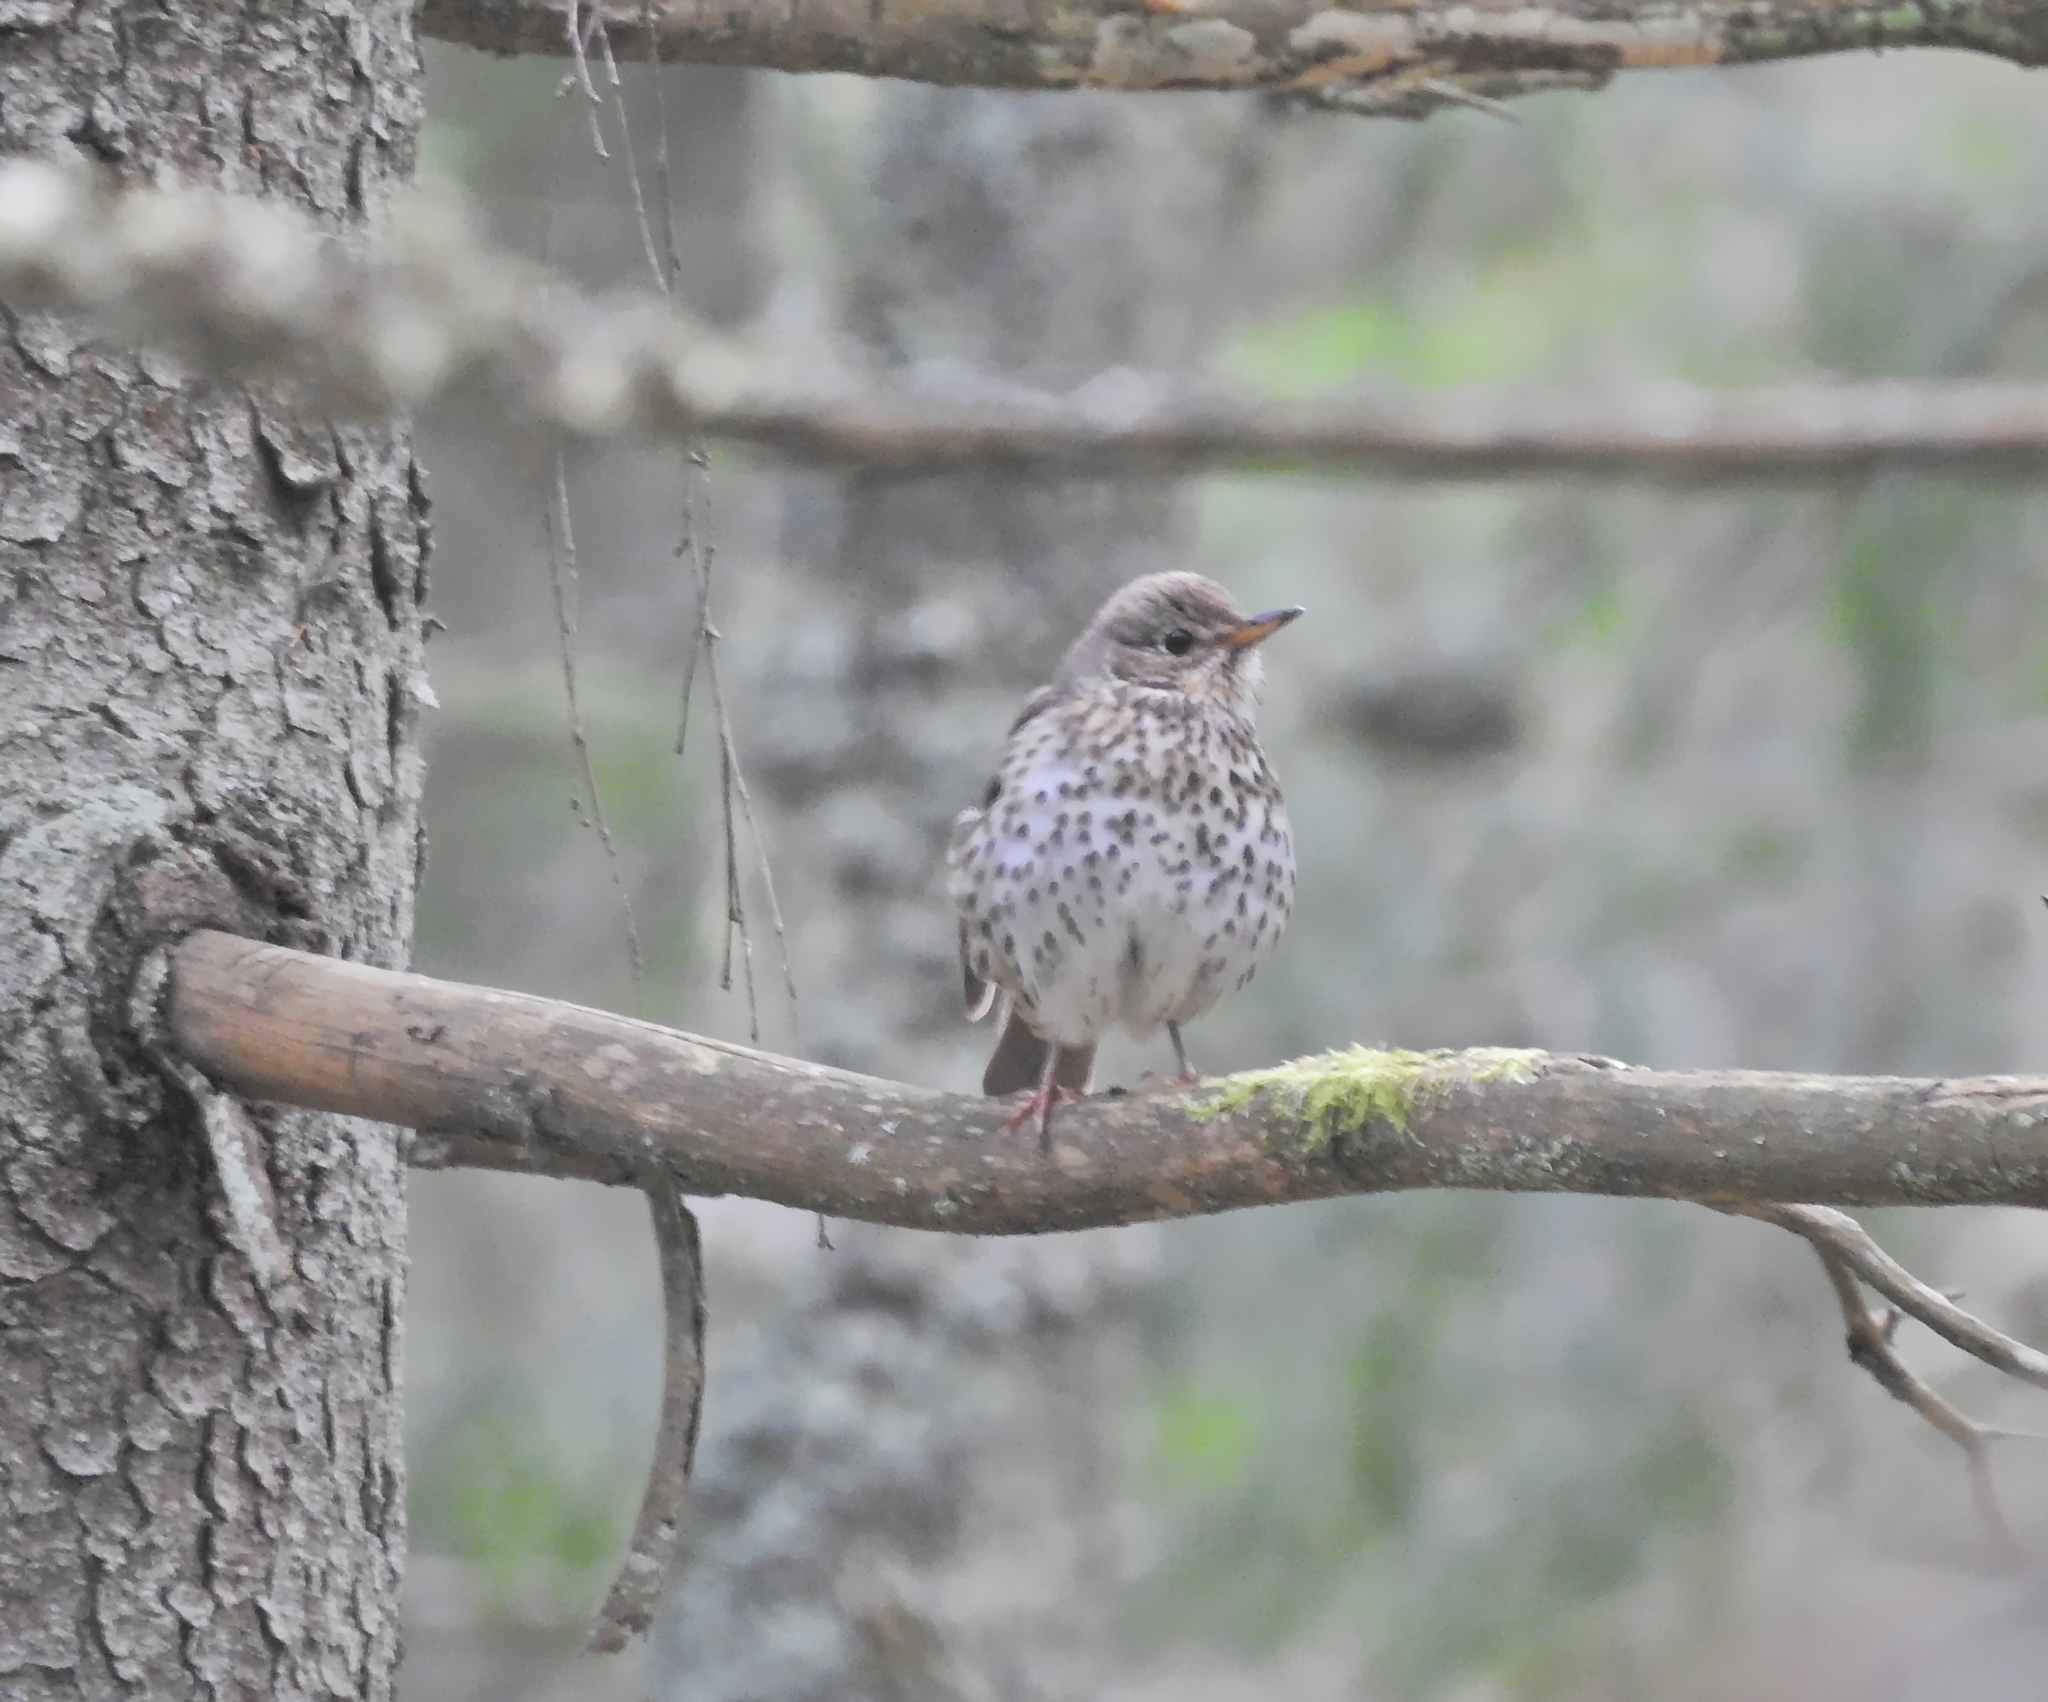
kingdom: Animalia
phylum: Chordata
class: Aves
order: Passeriformes
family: Turdidae
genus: Turdus
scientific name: Turdus philomelos
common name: Song thrush
